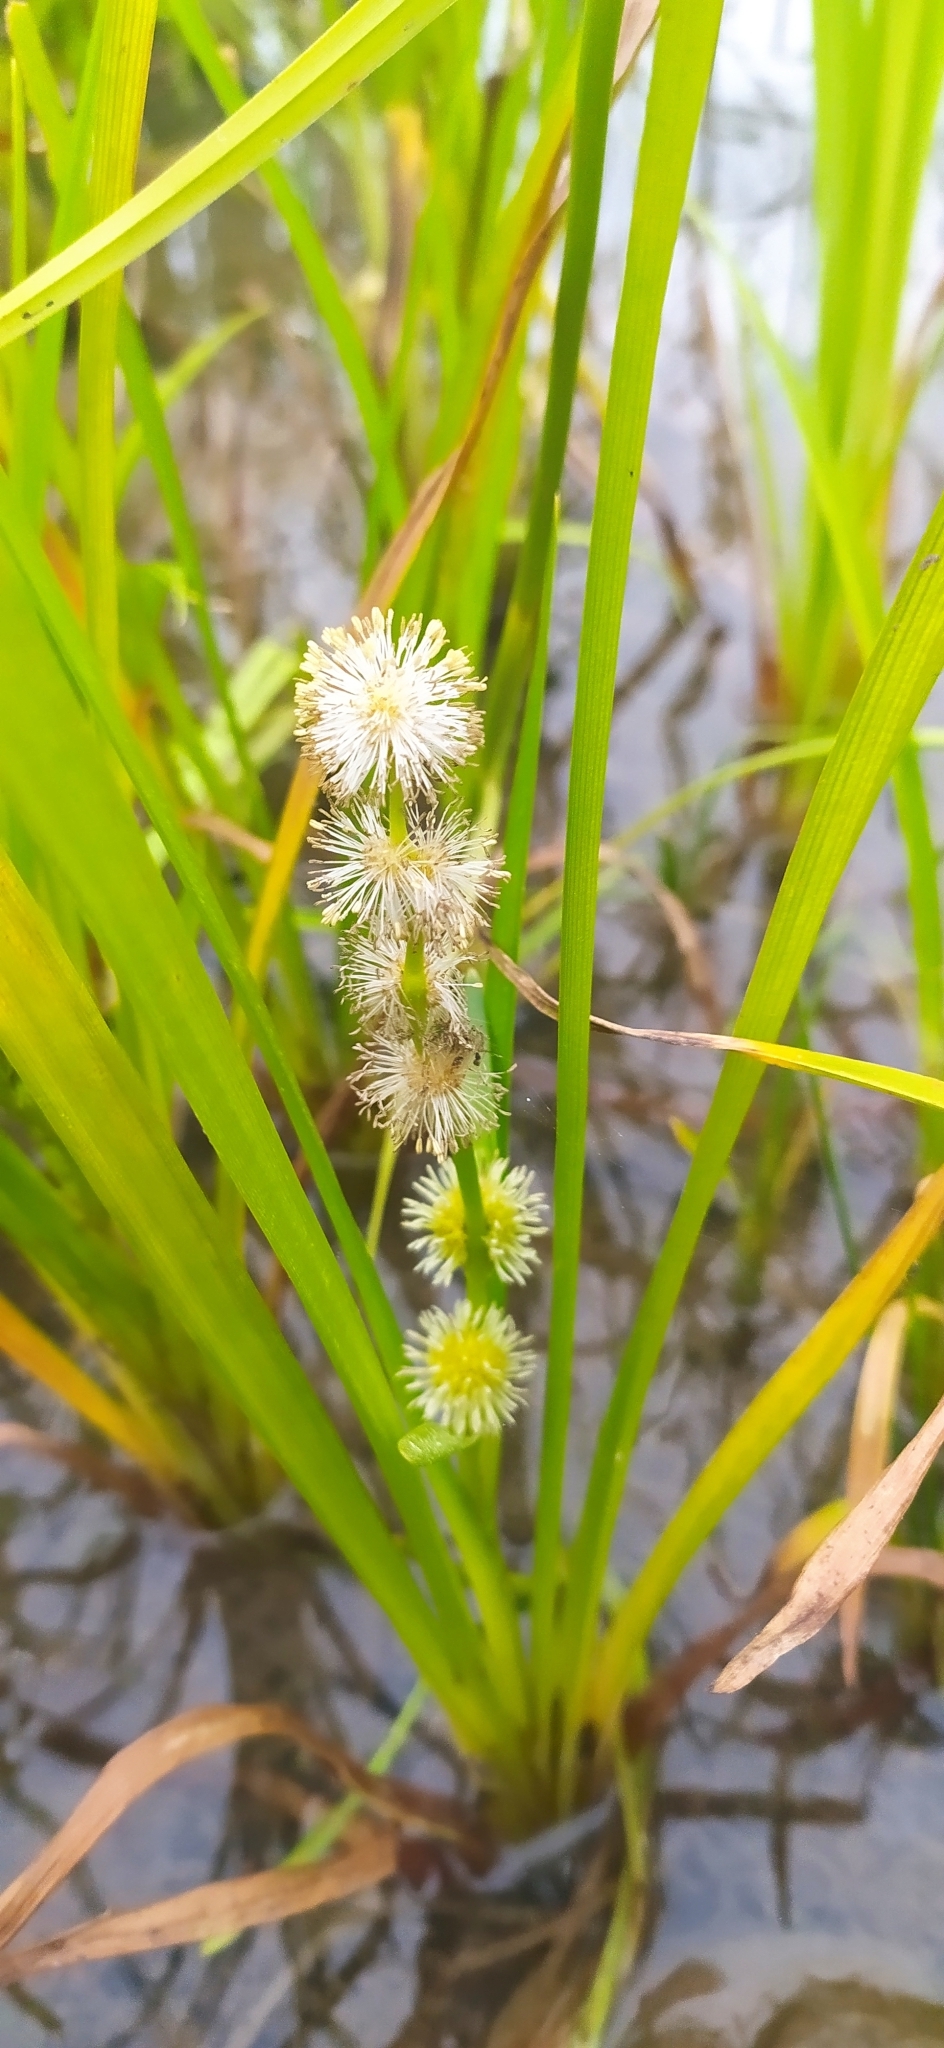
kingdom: Plantae
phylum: Tracheophyta
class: Liliopsida
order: Poales
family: Typhaceae
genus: Sparganium
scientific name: Sparganium emersum
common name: Unbranched bur-reed
